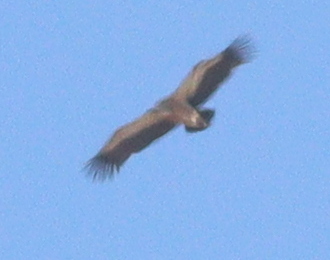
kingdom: Animalia
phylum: Chordata
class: Aves
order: Accipitriformes
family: Accipitridae
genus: Gyps
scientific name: Gyps fulvus
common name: Griffon vulture
